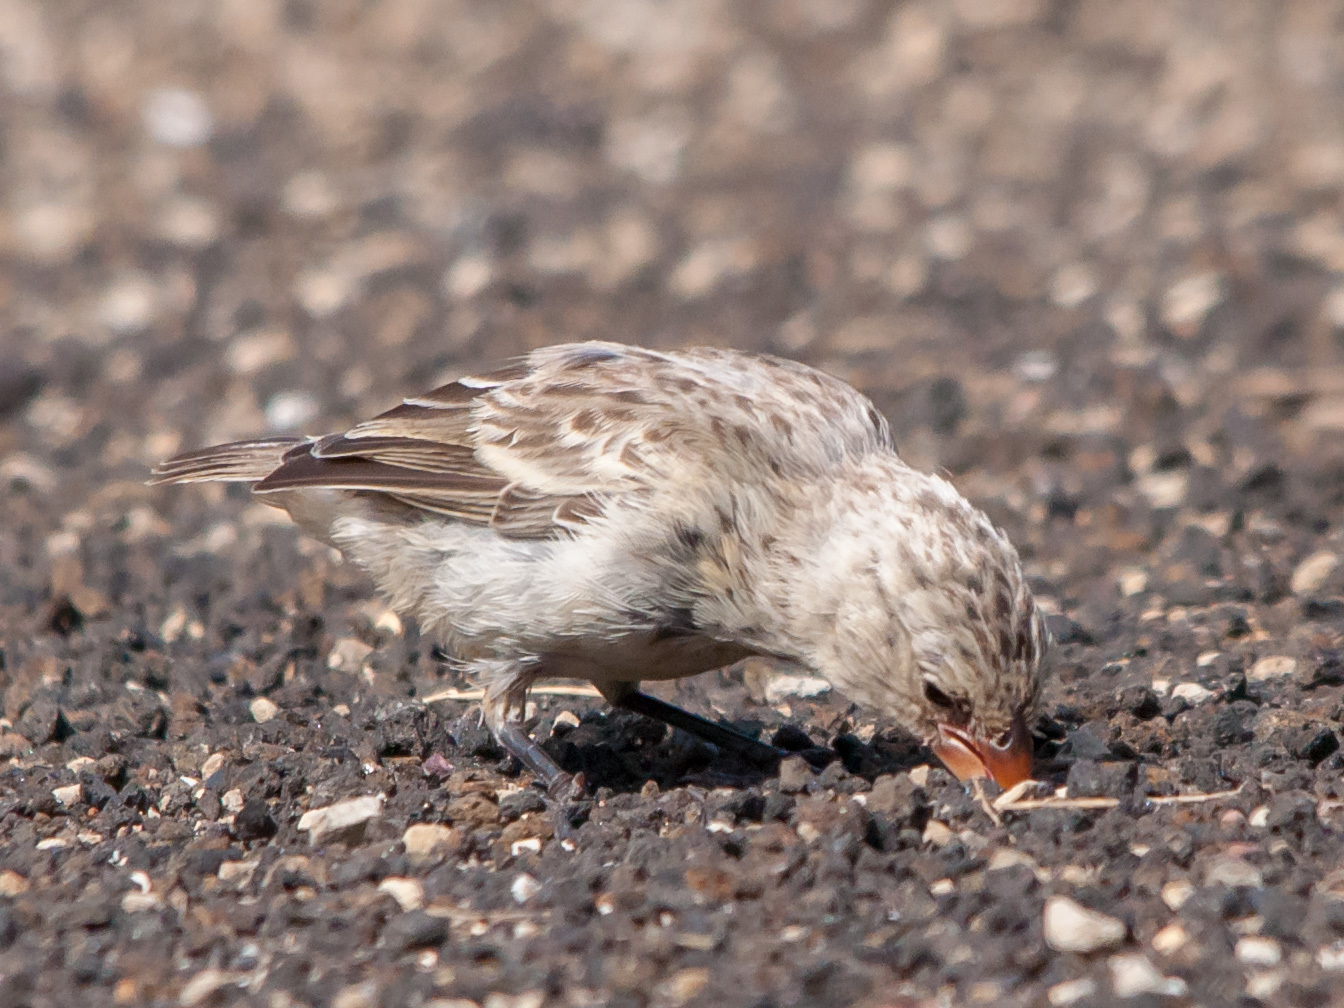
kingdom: Animalia
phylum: Chordata
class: Aves
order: Passeriformes
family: Thraupidae
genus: Geospiza
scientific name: Geospiza fortis
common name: Medium ground finch
